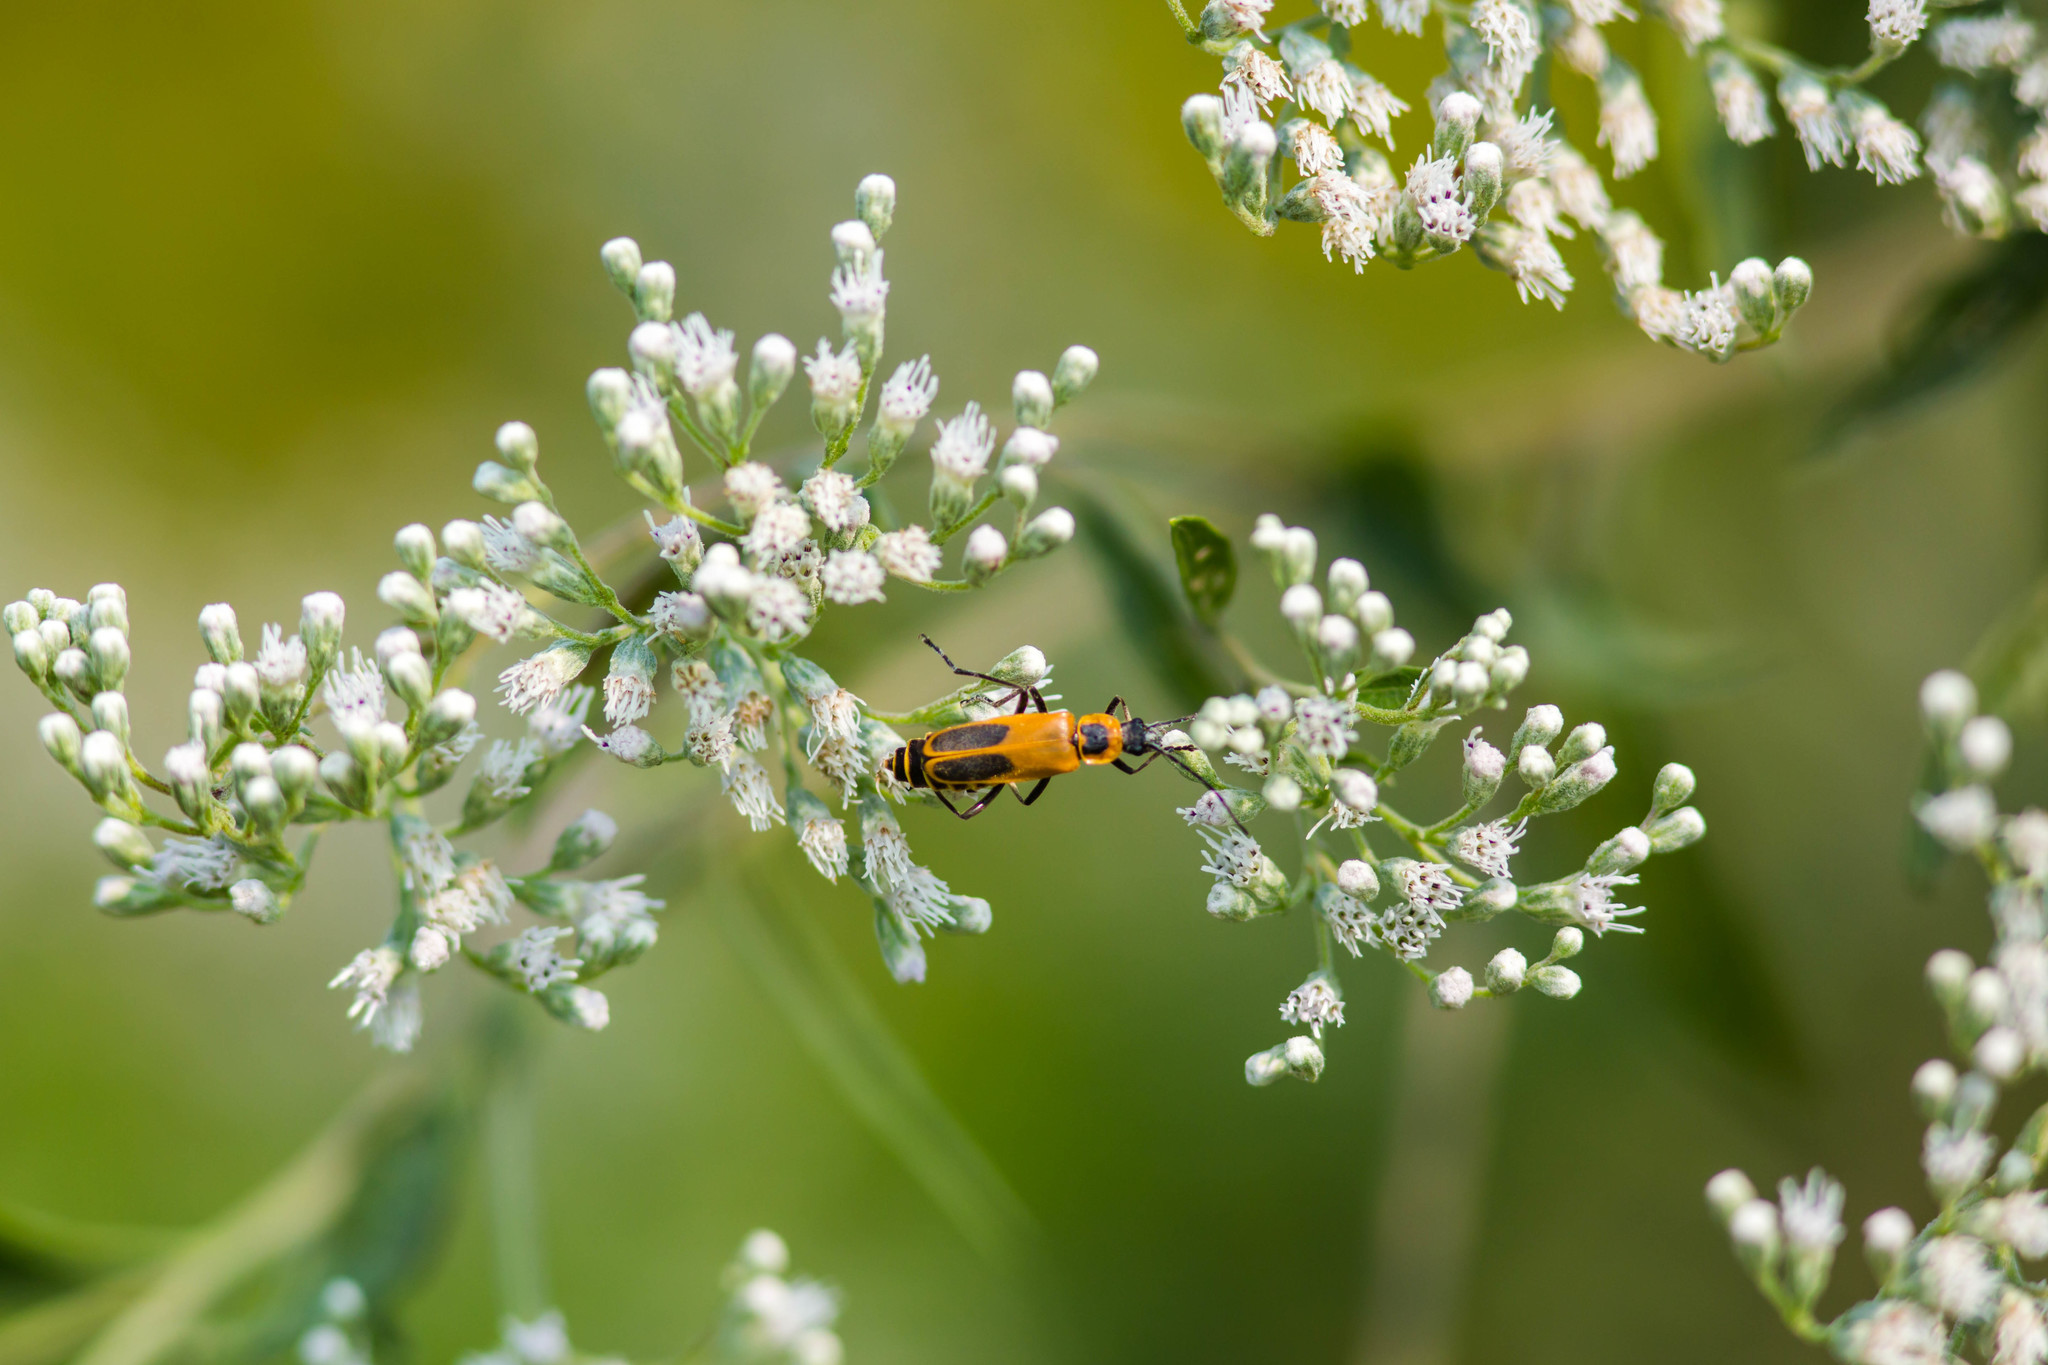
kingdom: Animalia
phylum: Arthropoda
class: Insecta
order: Coleoptera
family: Cantharidae
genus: Chauliognathus
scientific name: Chauliognathus pensylvanicus
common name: Goldenrod soldier beetle
